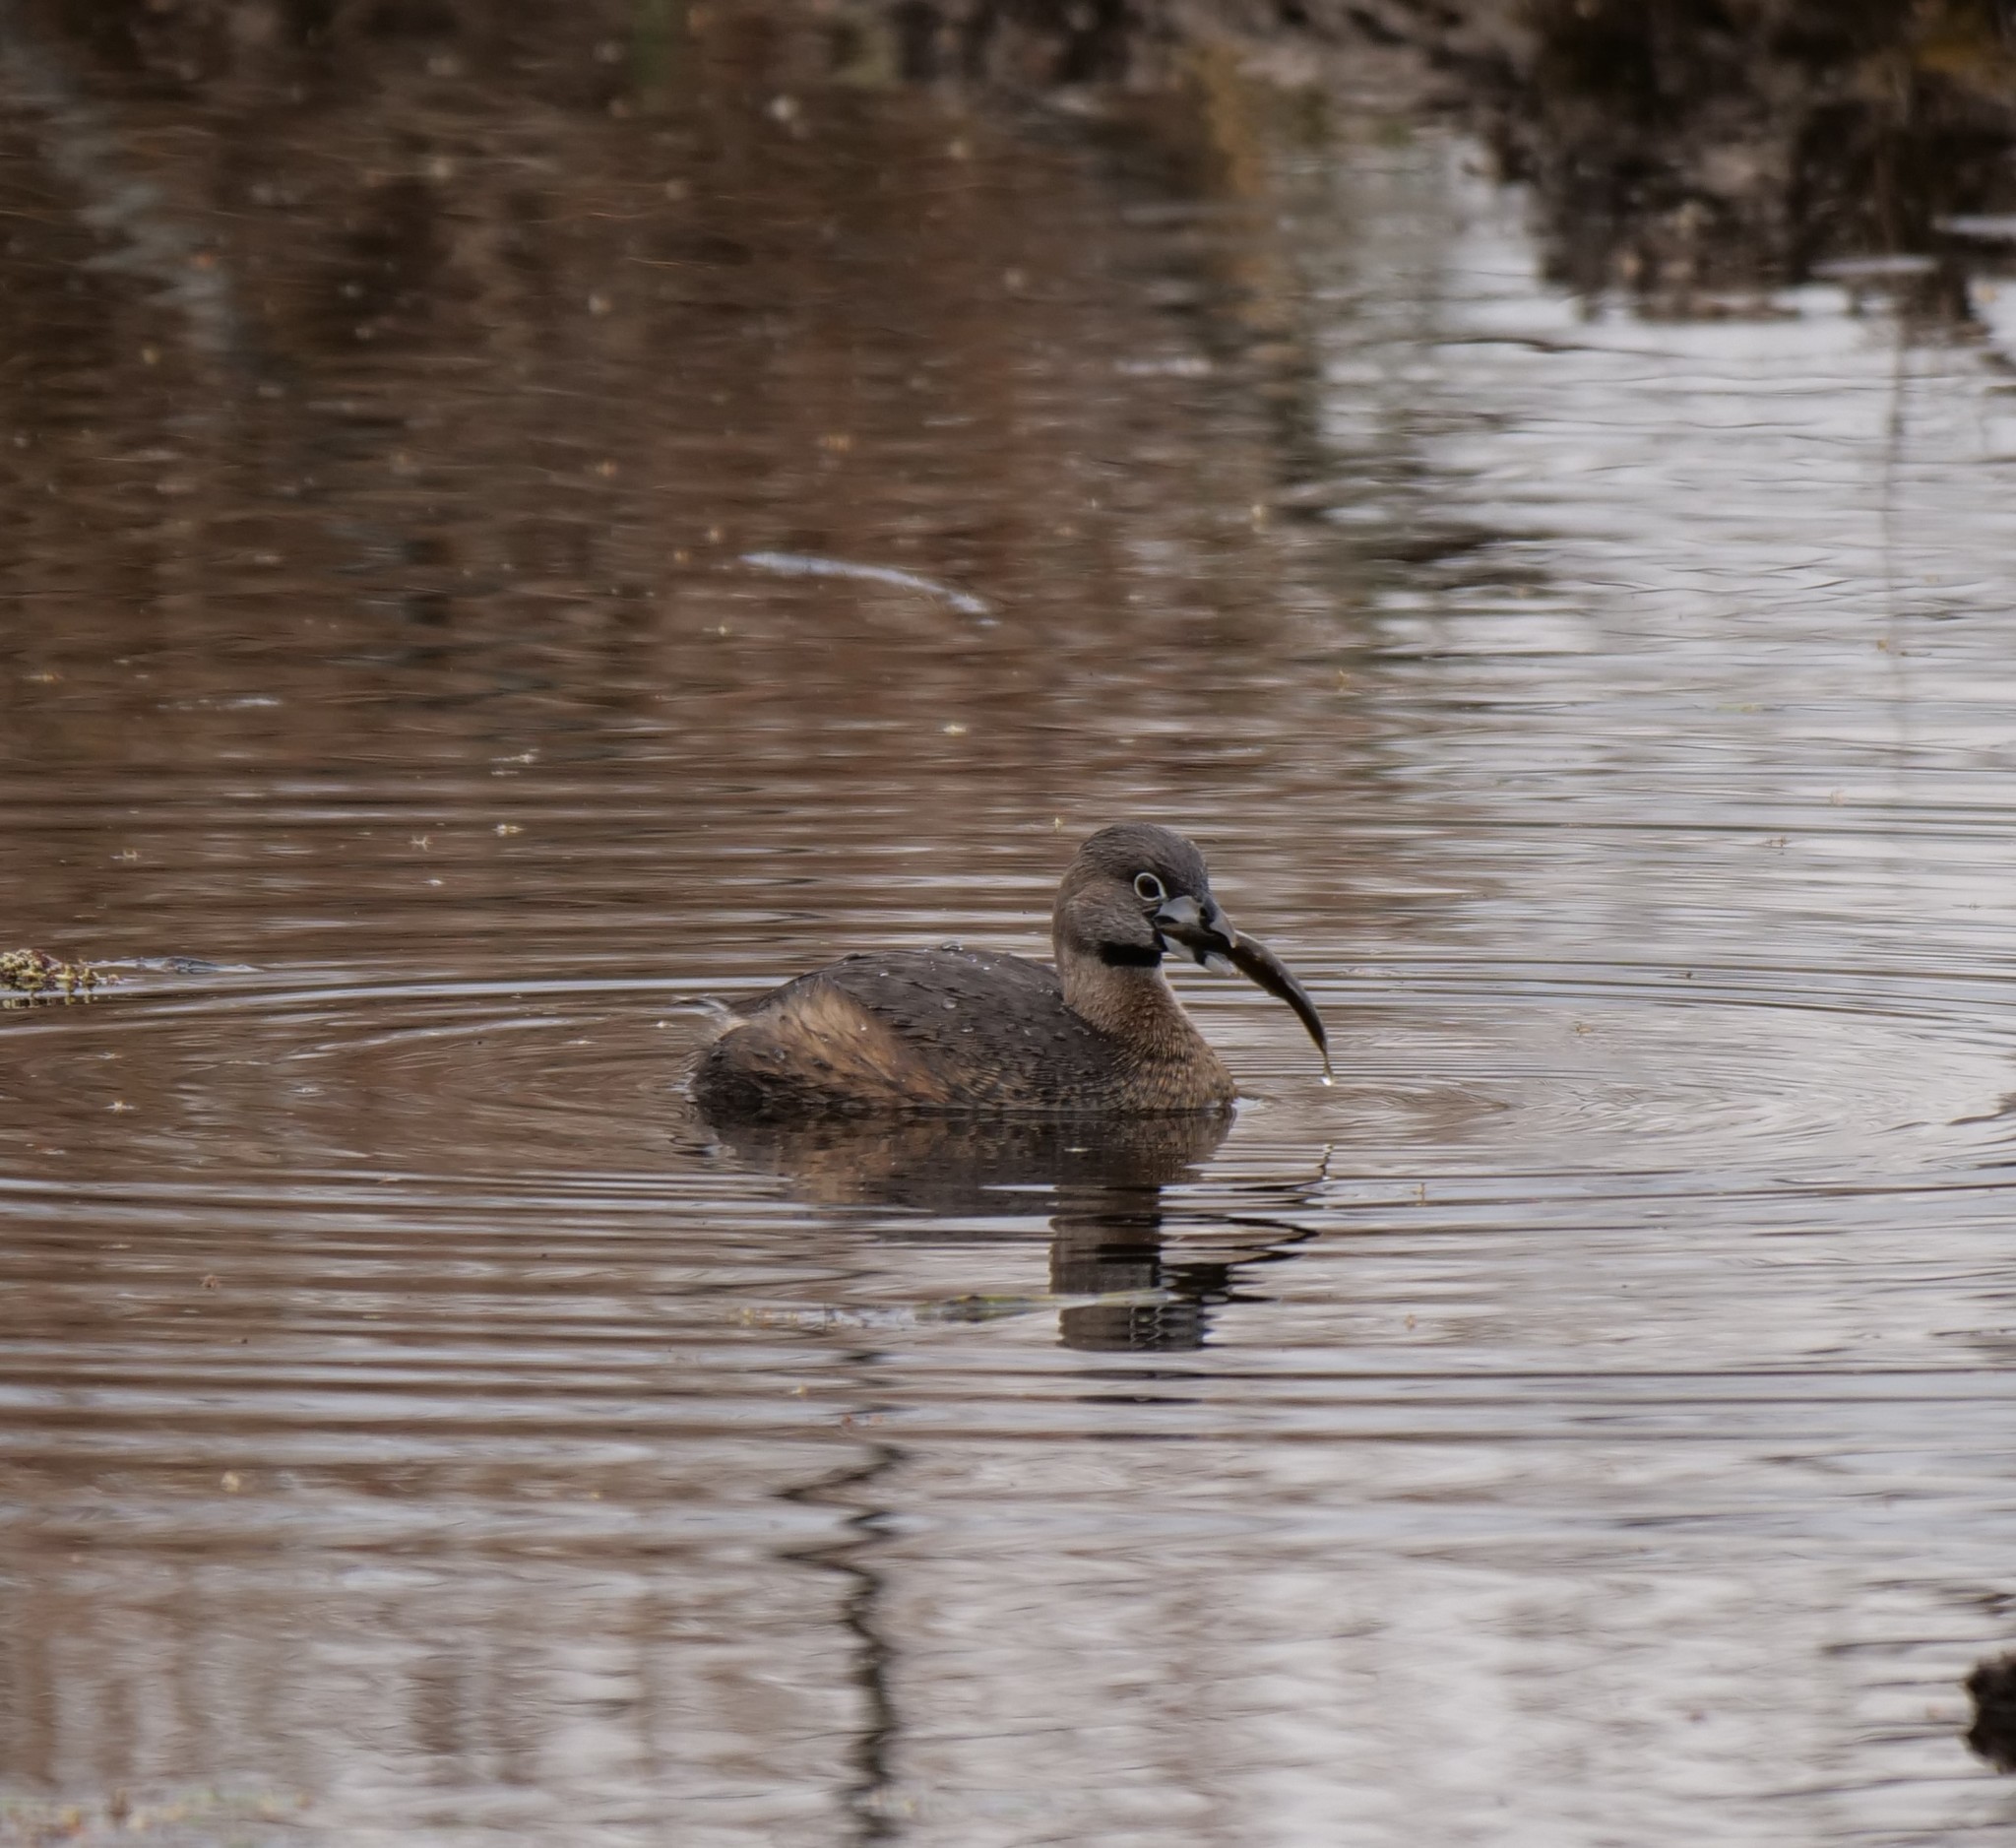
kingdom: Animalia
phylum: Chordata
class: Aves
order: Podicipediformes
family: Podicipedidae
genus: Podilymbus
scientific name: Podilymbus podiceps
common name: Pied-billed grebe
